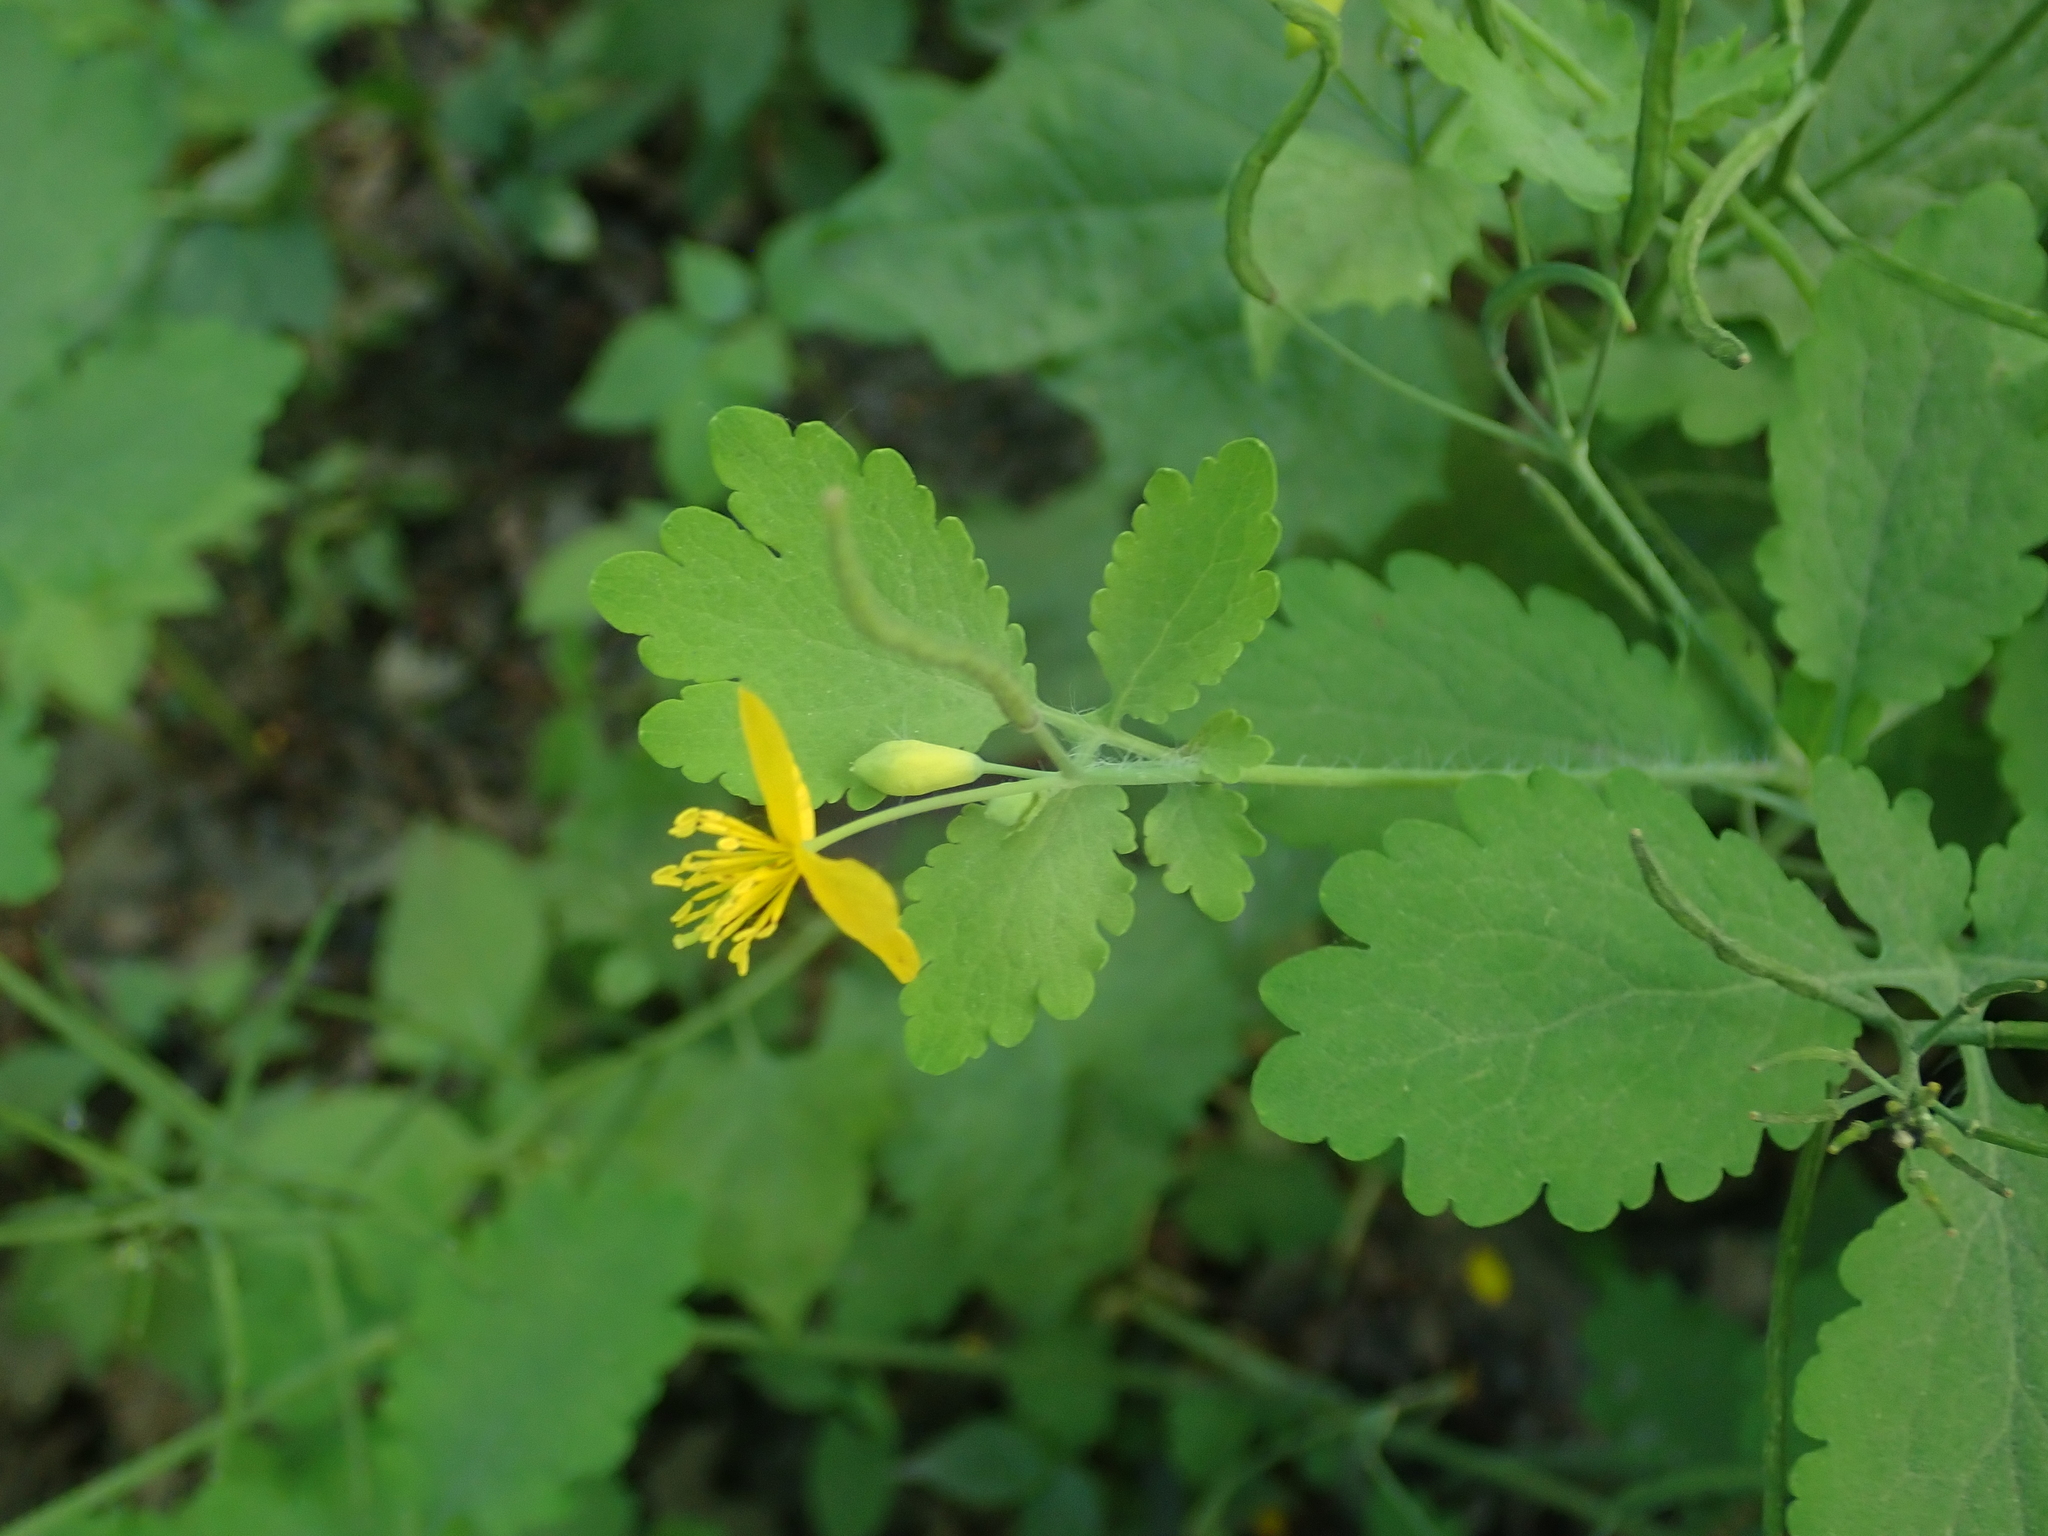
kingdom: Plantae
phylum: Tracheophyta
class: Magnoliopsida
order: Ranunculales
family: Papaveraceae
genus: Chelidonium
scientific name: Chelidonium majus
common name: Greater celandine
